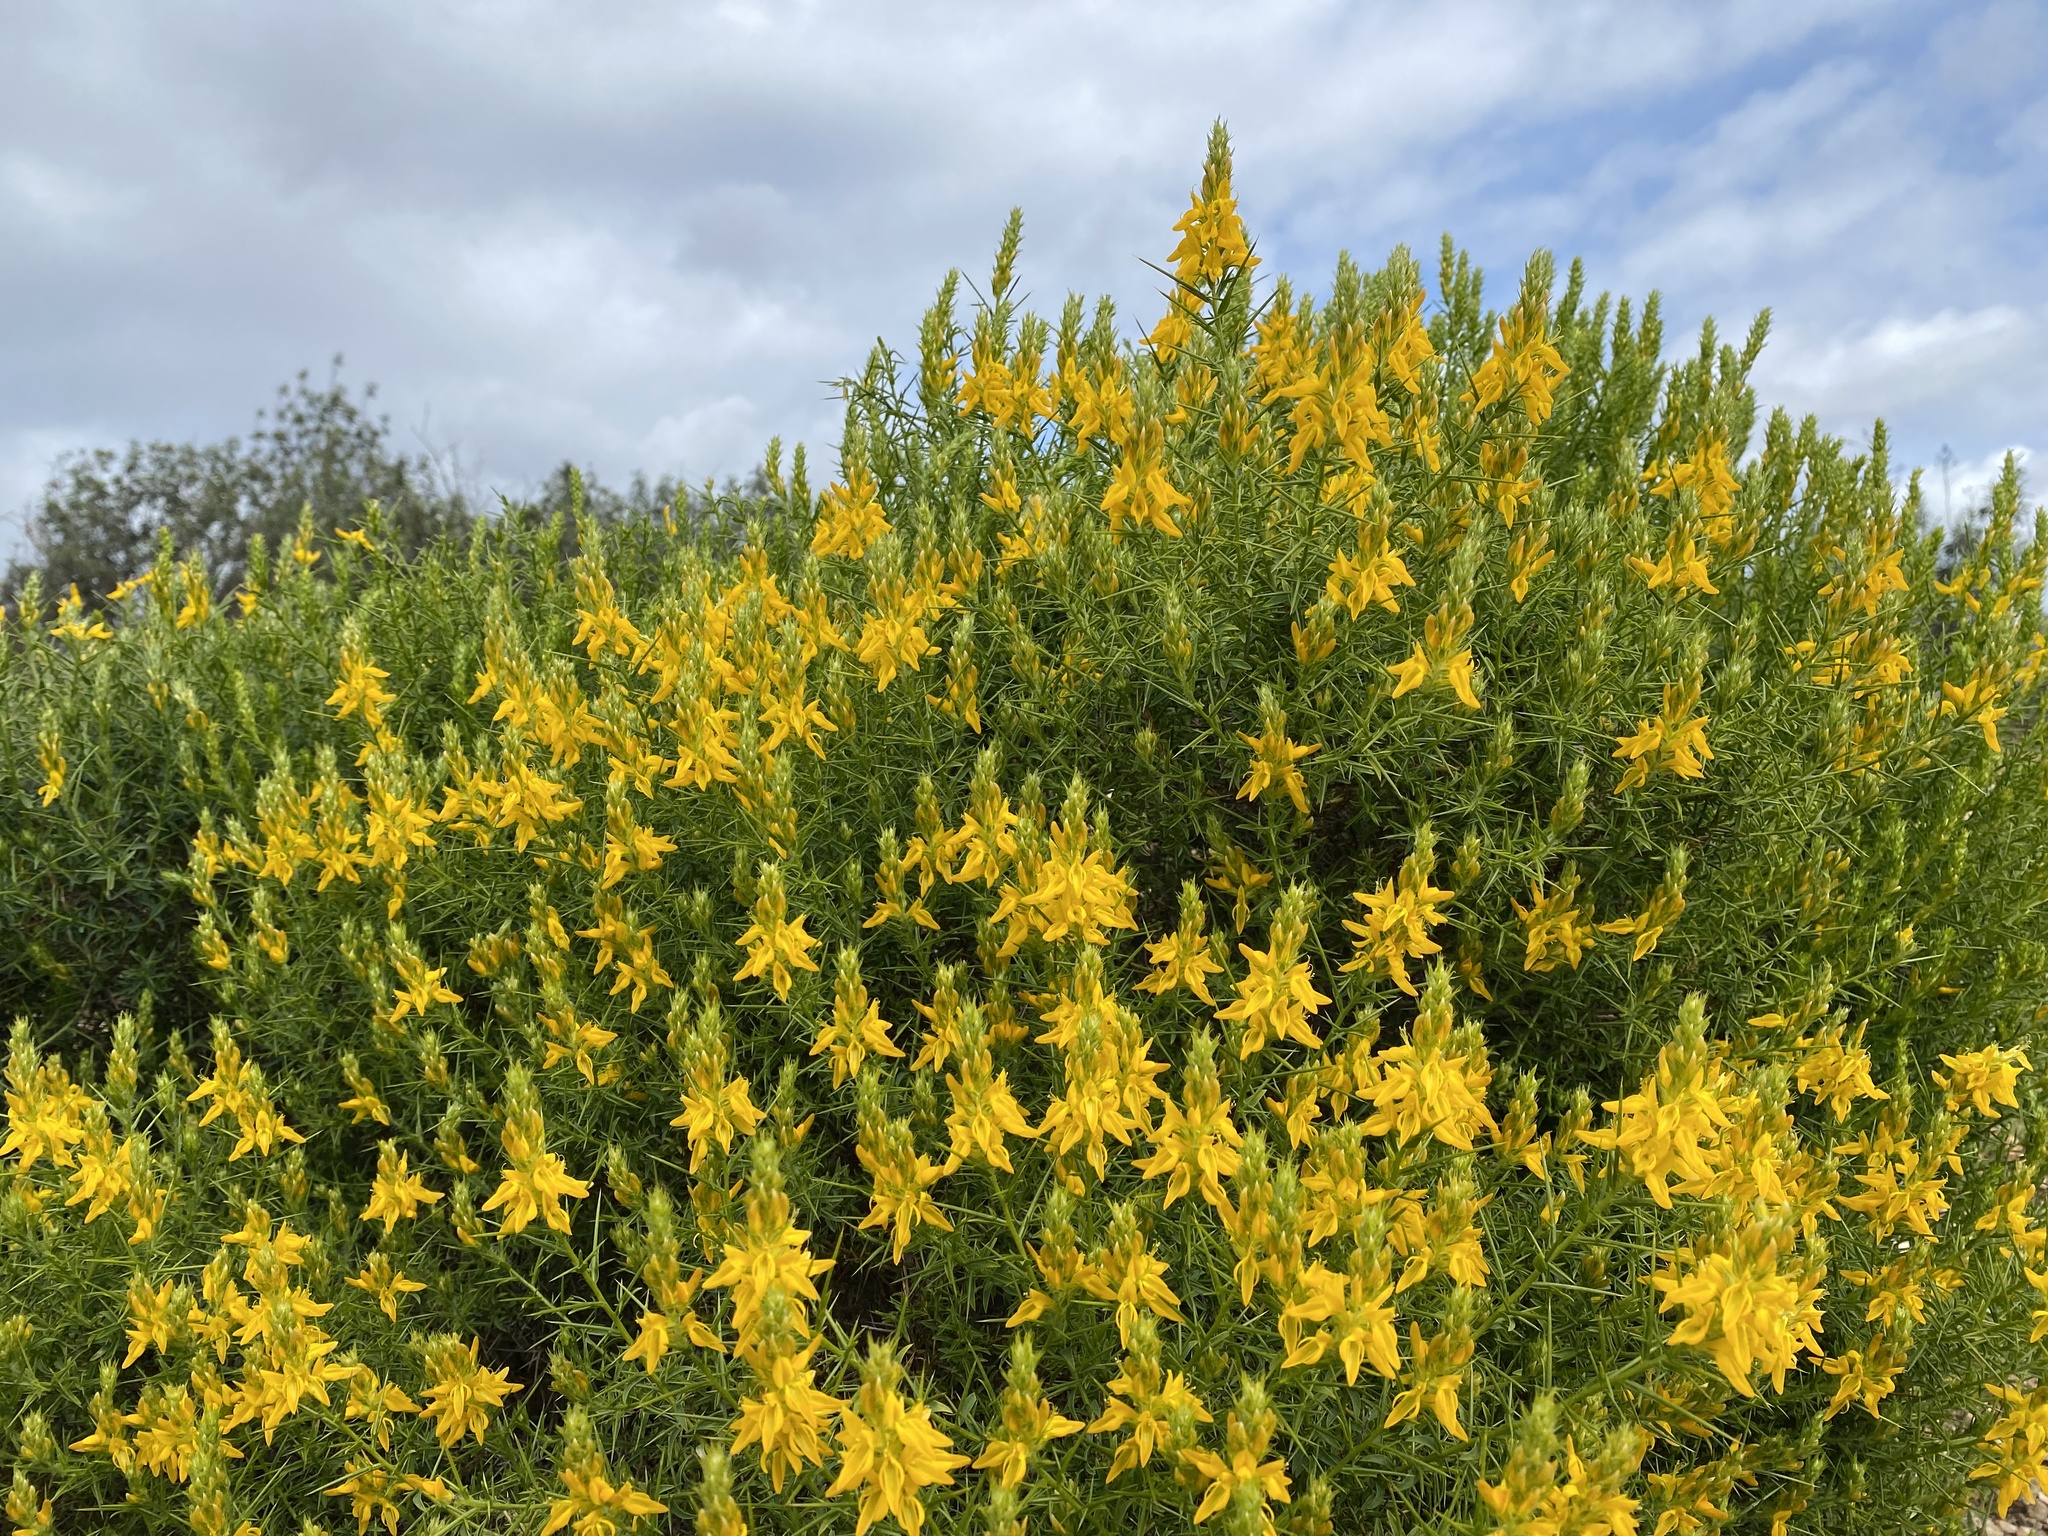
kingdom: Plantae
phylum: Tracheophyta
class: Magnoliopsida
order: Fabales
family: Fabaceae
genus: Genista
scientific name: Genista hirsuta
